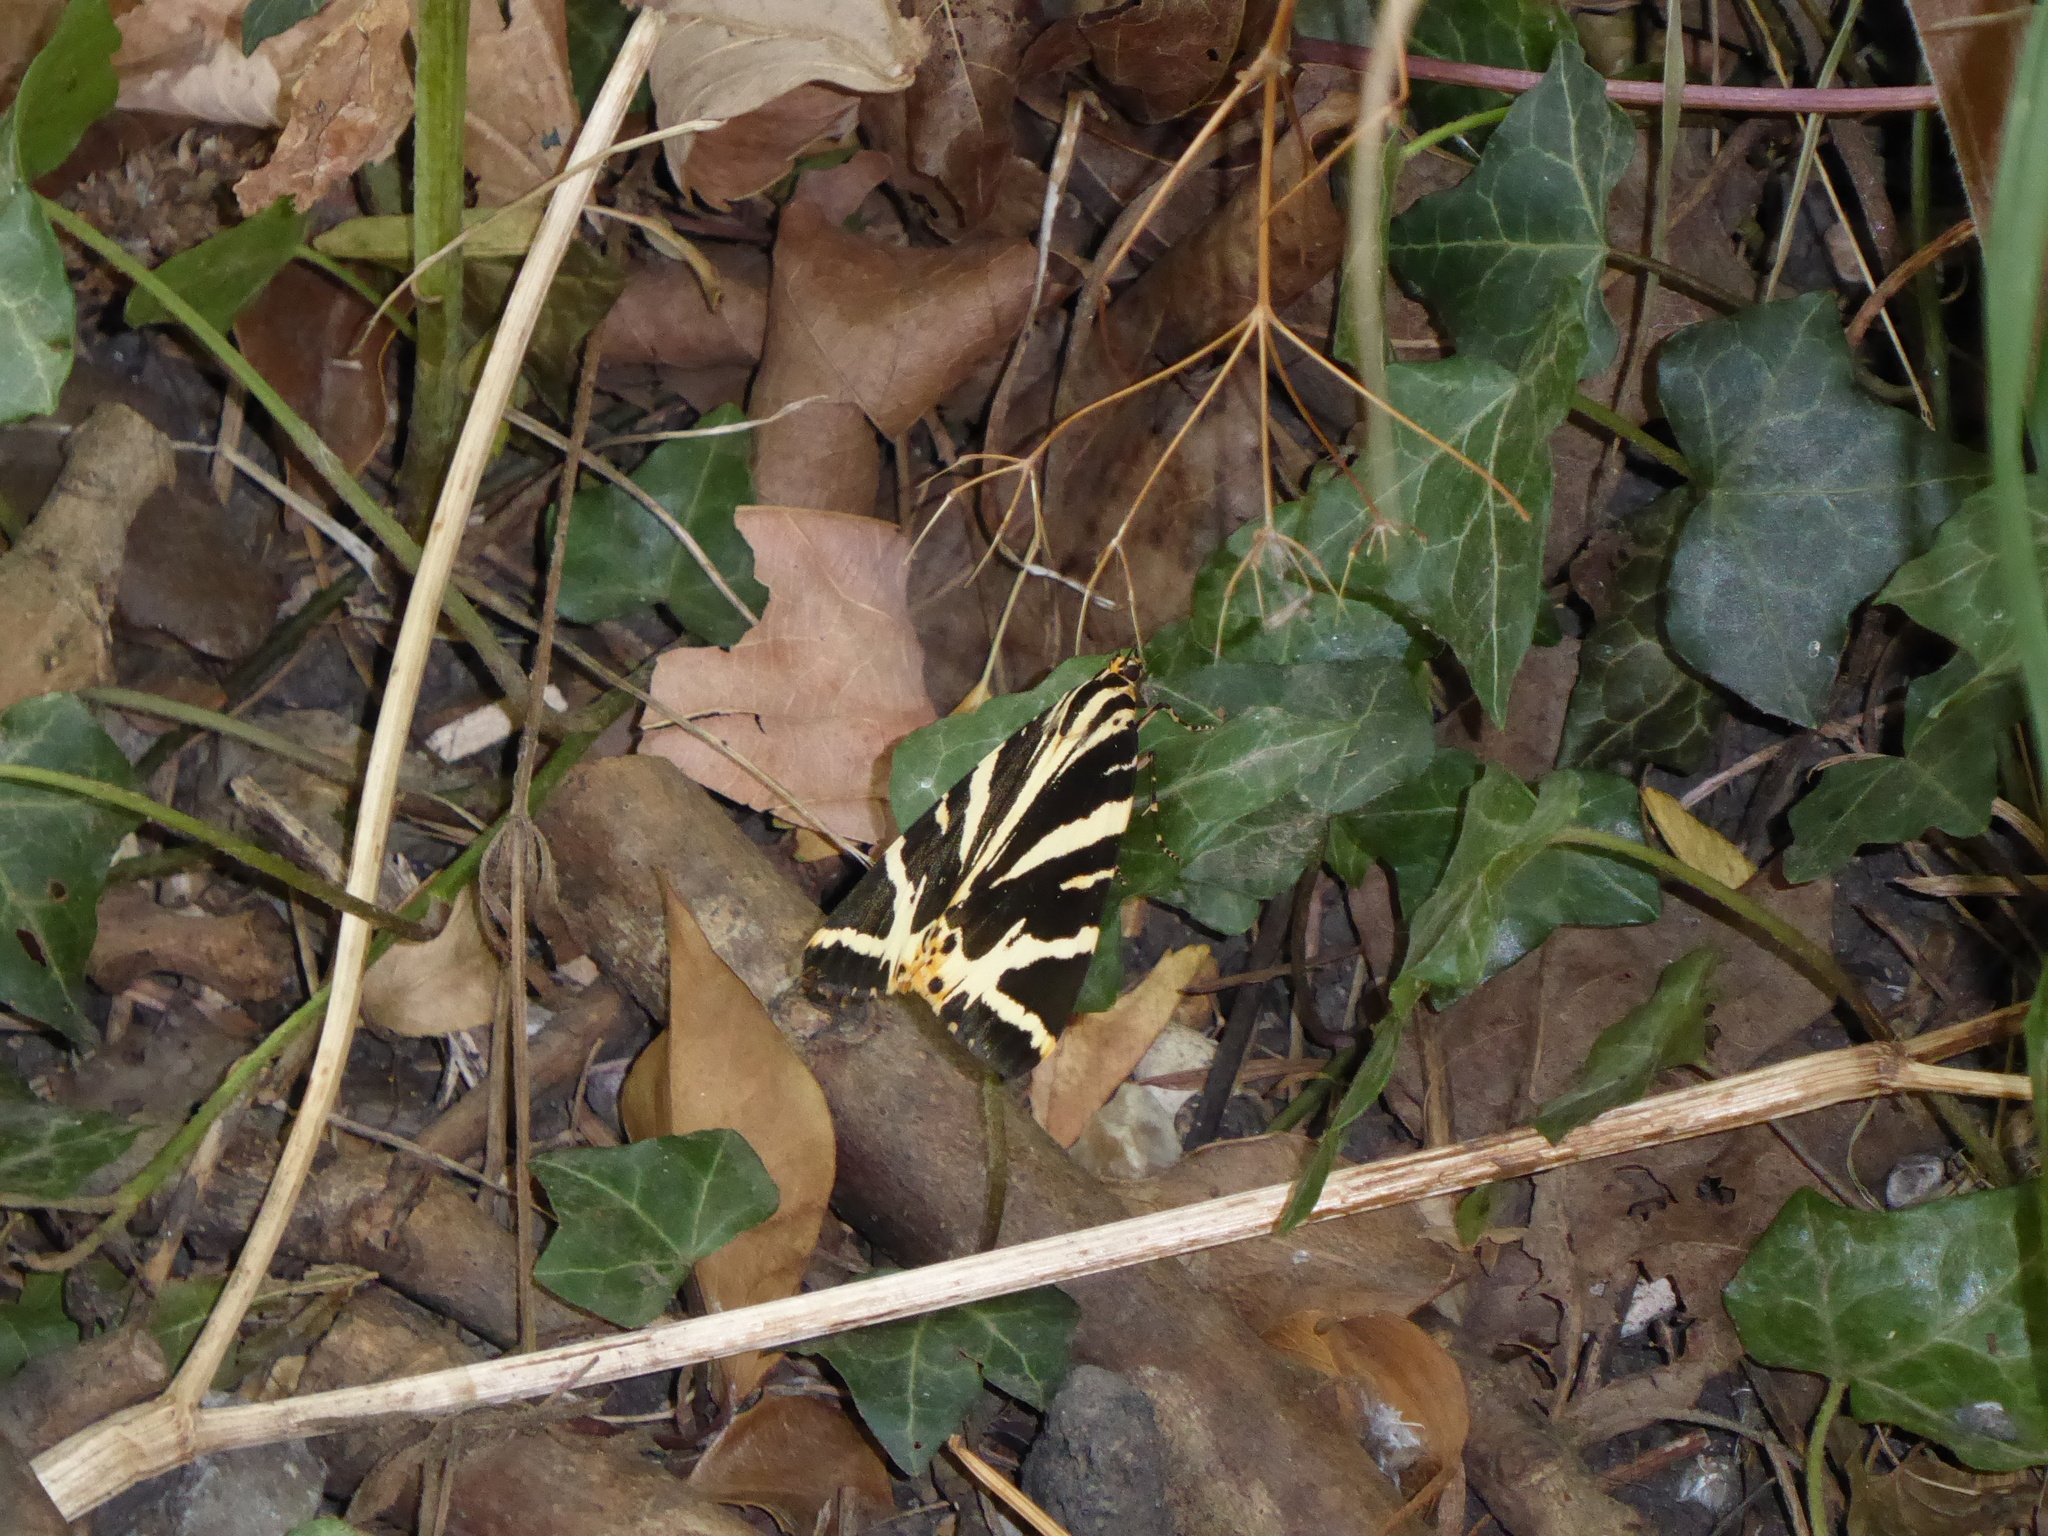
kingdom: Animalia
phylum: Arthropoda
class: Insecta
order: Lepidoptera
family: Erebidae
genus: Euplagia
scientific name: Euplagia quadripunctaria
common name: Jersey tiger
